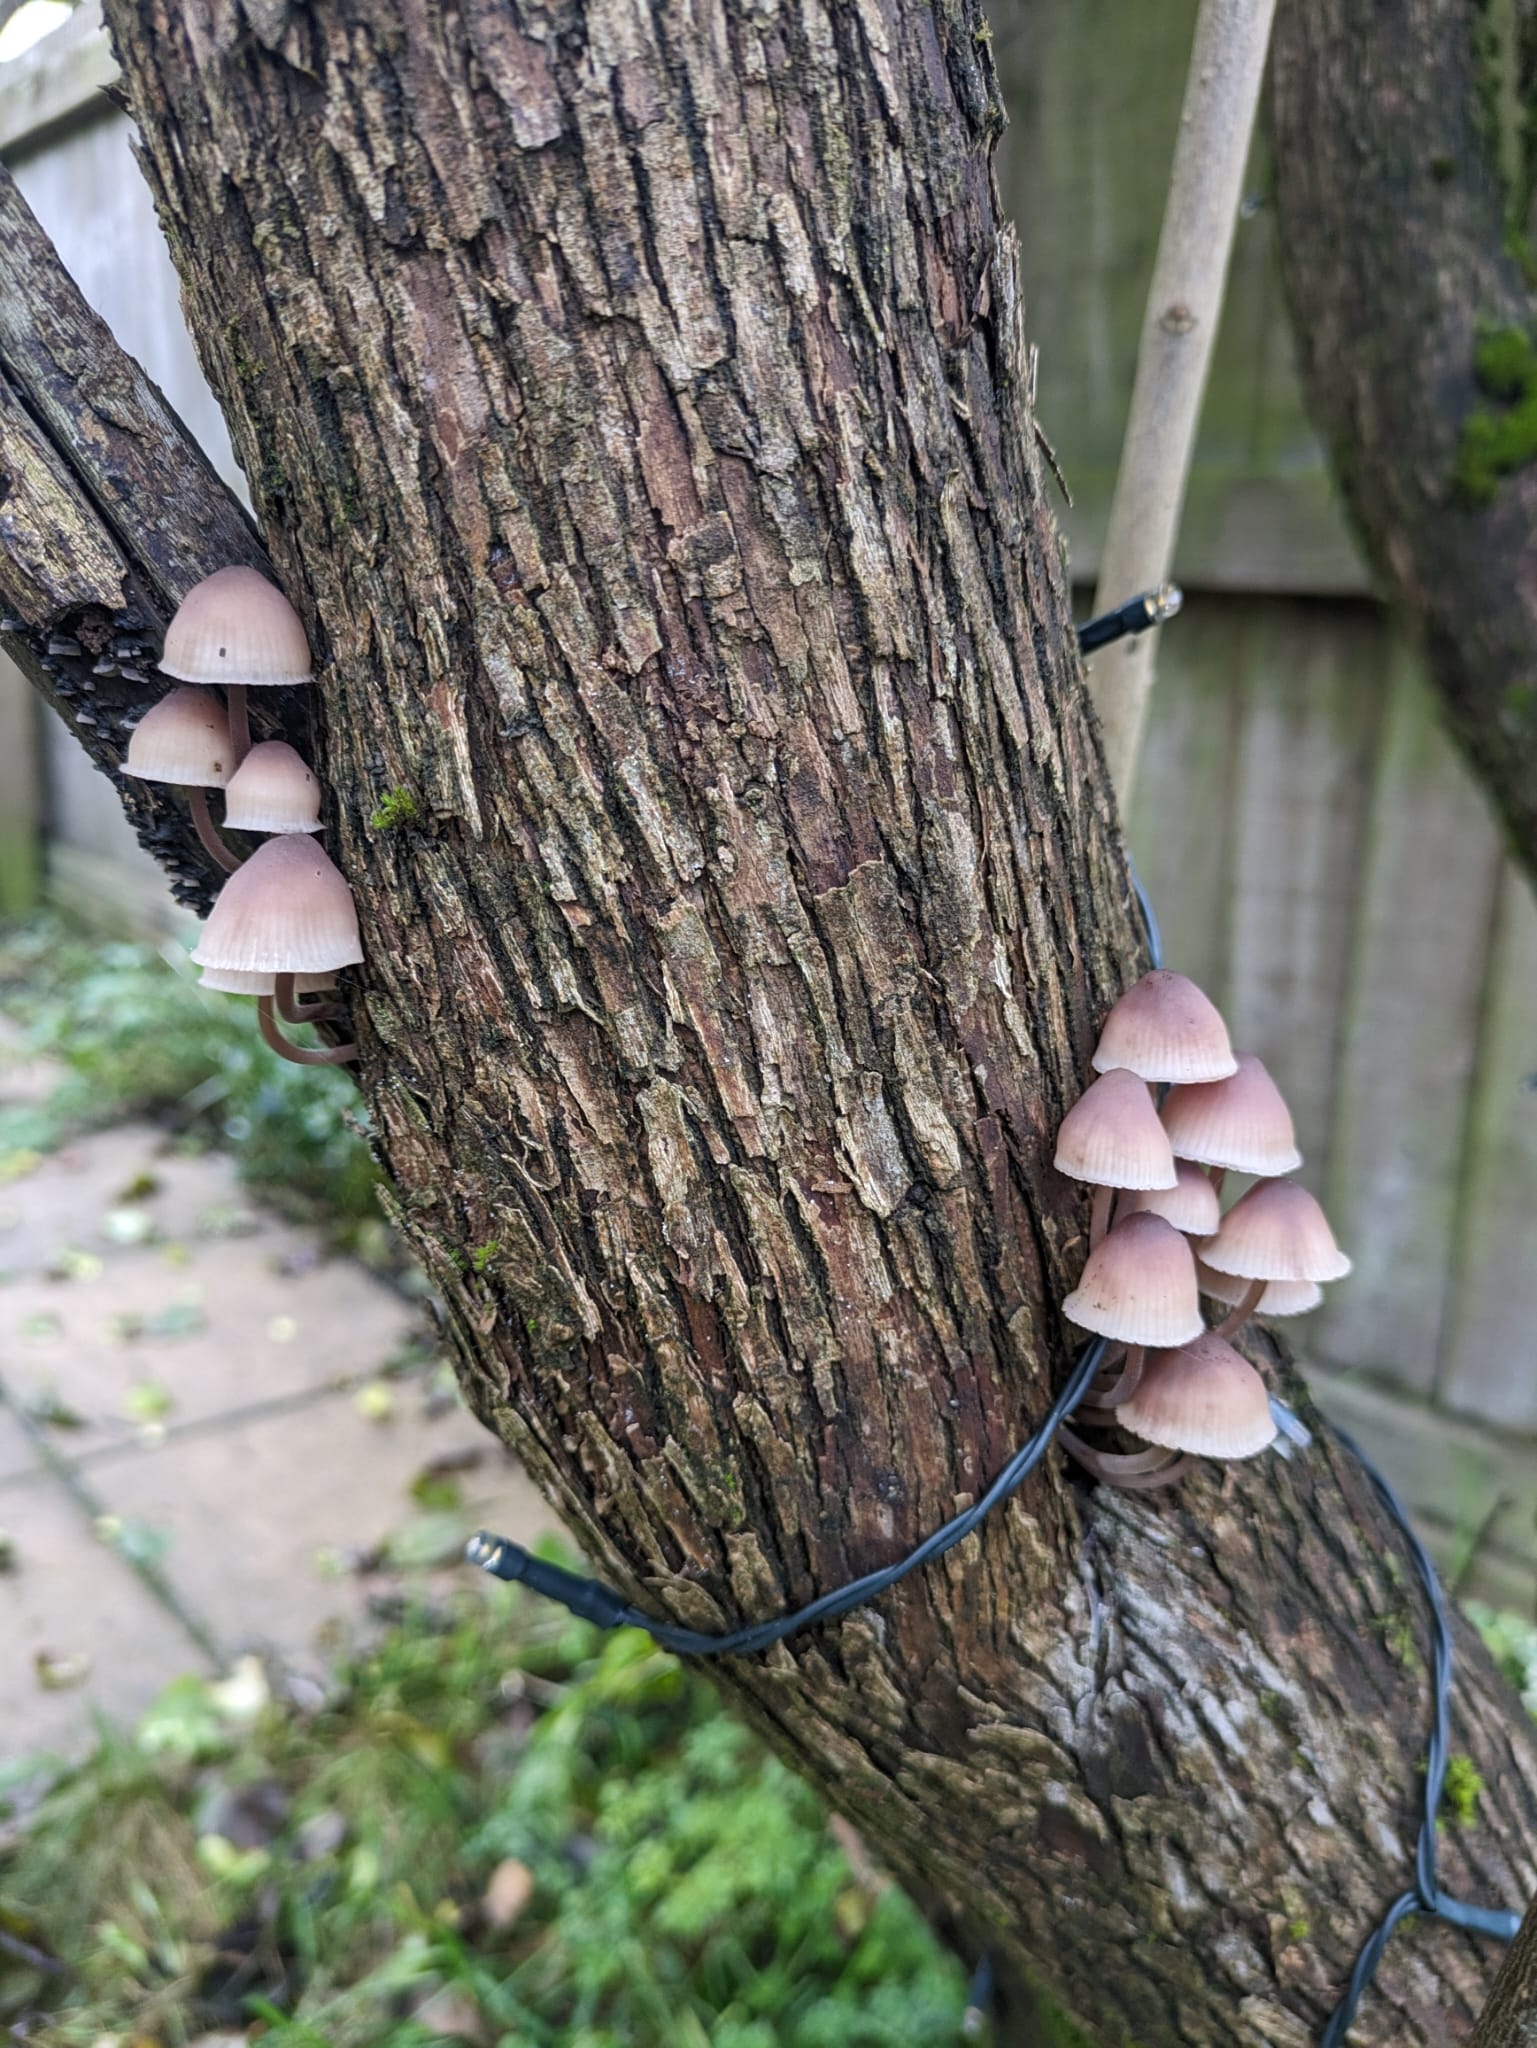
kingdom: Fungi
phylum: Basidiomycota
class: Agaricomycetes
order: Agaricales
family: Mycenaceae
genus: Mycena
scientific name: Mycena haematopus
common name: Burgundydrop bonnet
